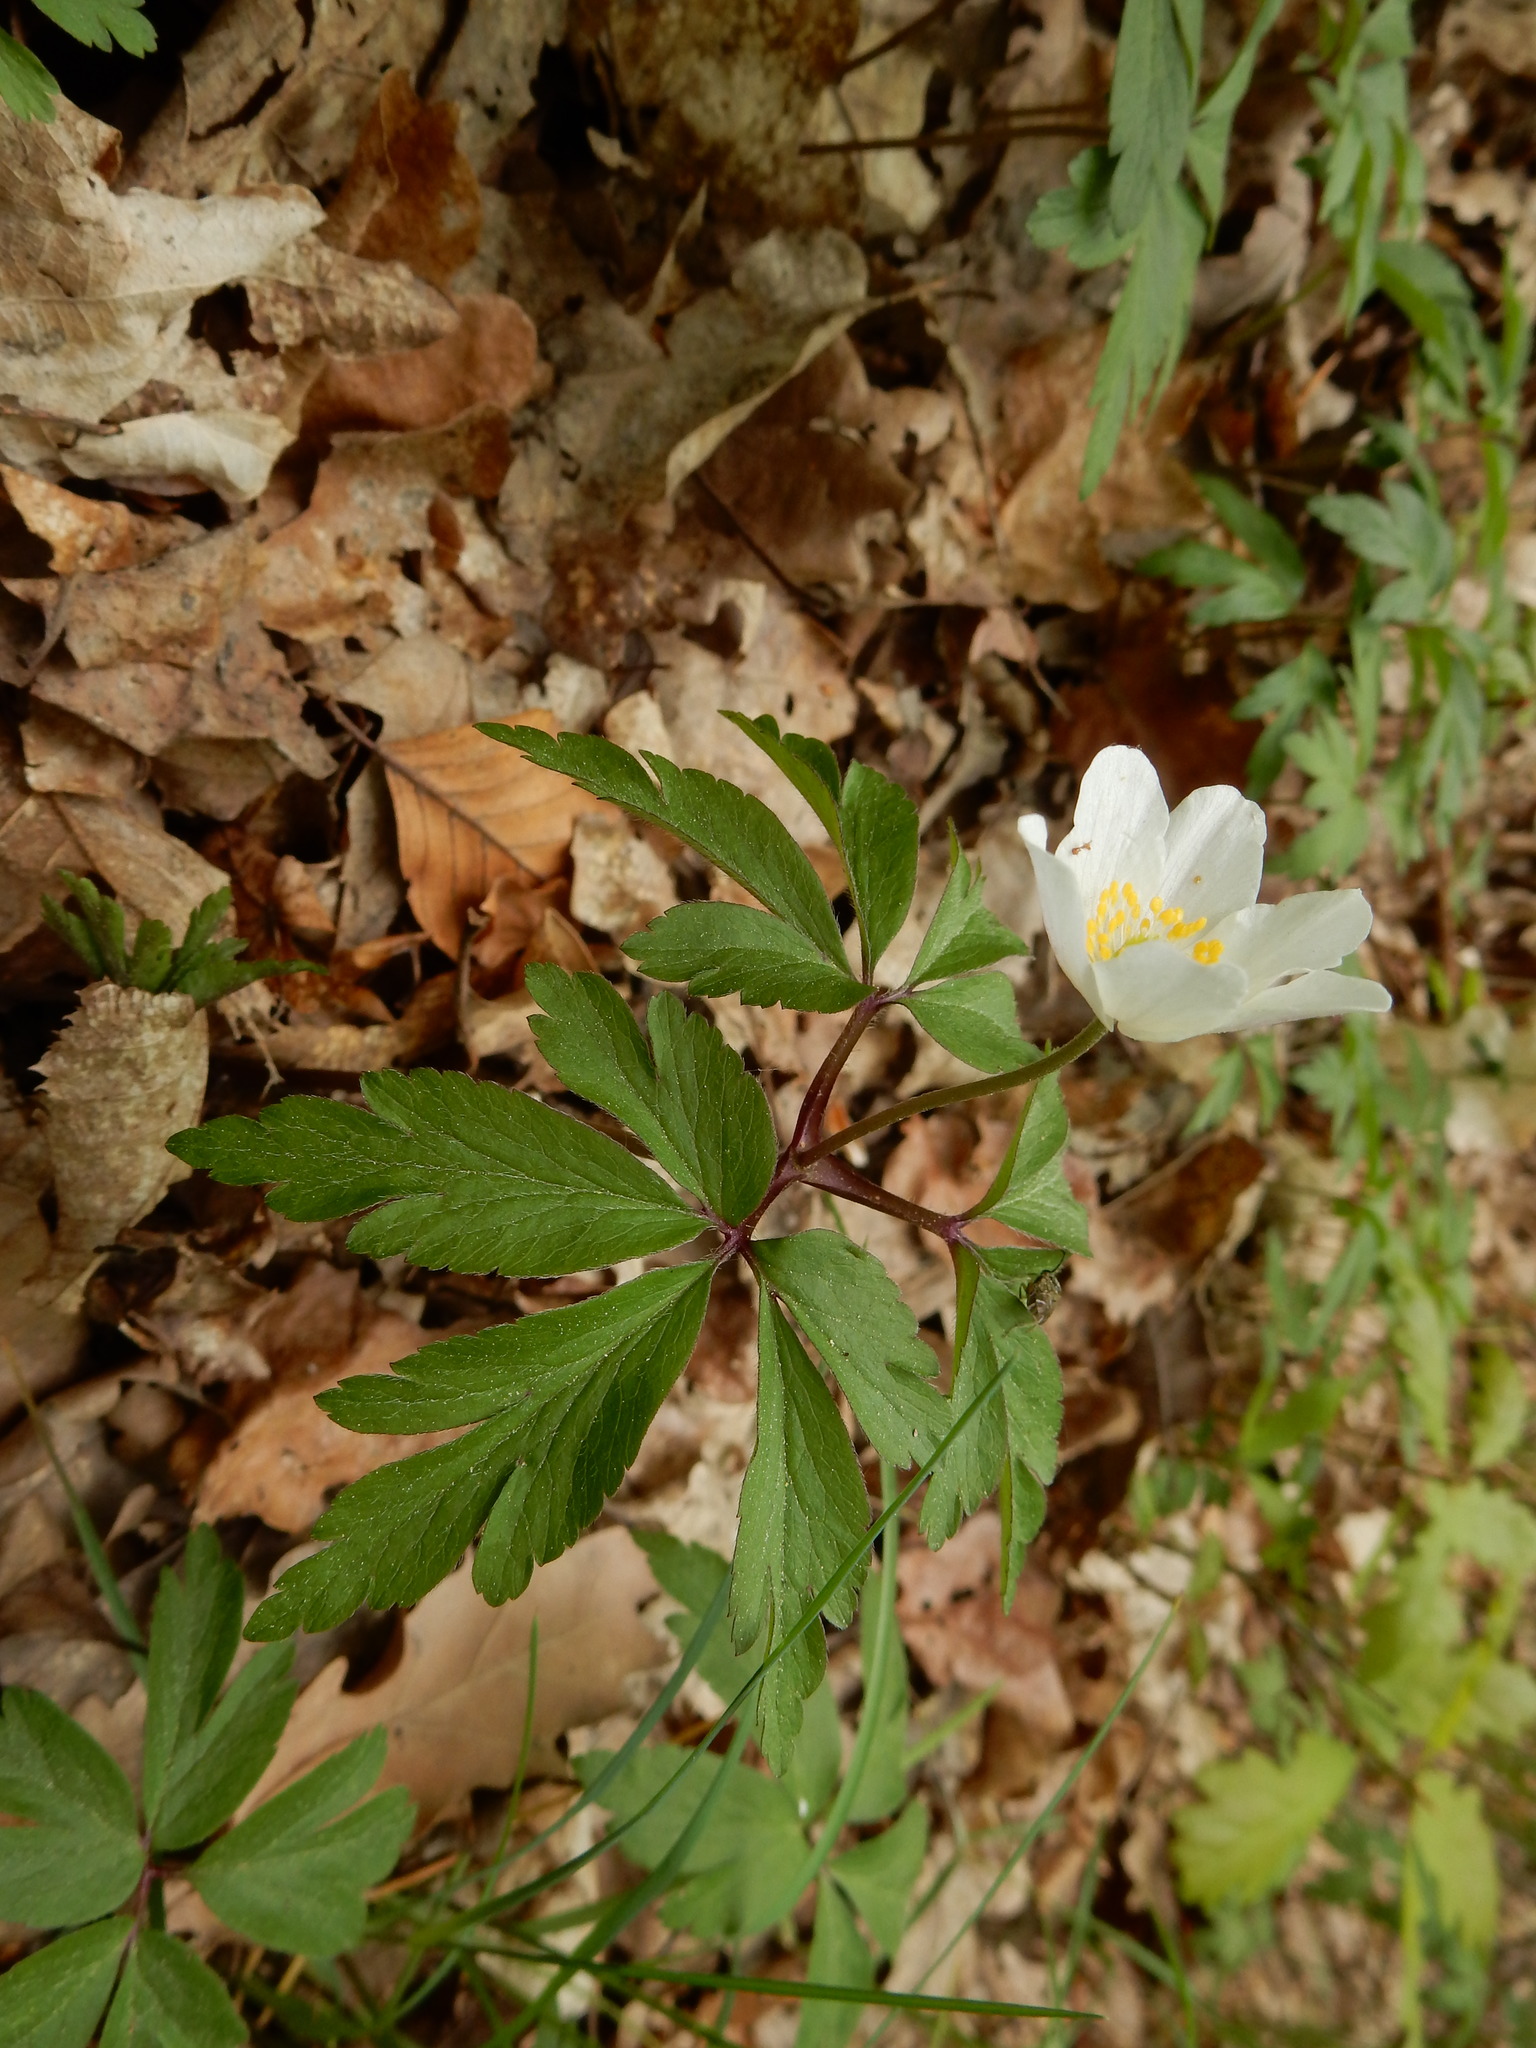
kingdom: Plantae
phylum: Tracheophyta
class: Magnoliopsida
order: Ranunculales
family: Ranunculaceae
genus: Anemone
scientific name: Anemone nemorosa
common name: Wood anemone
